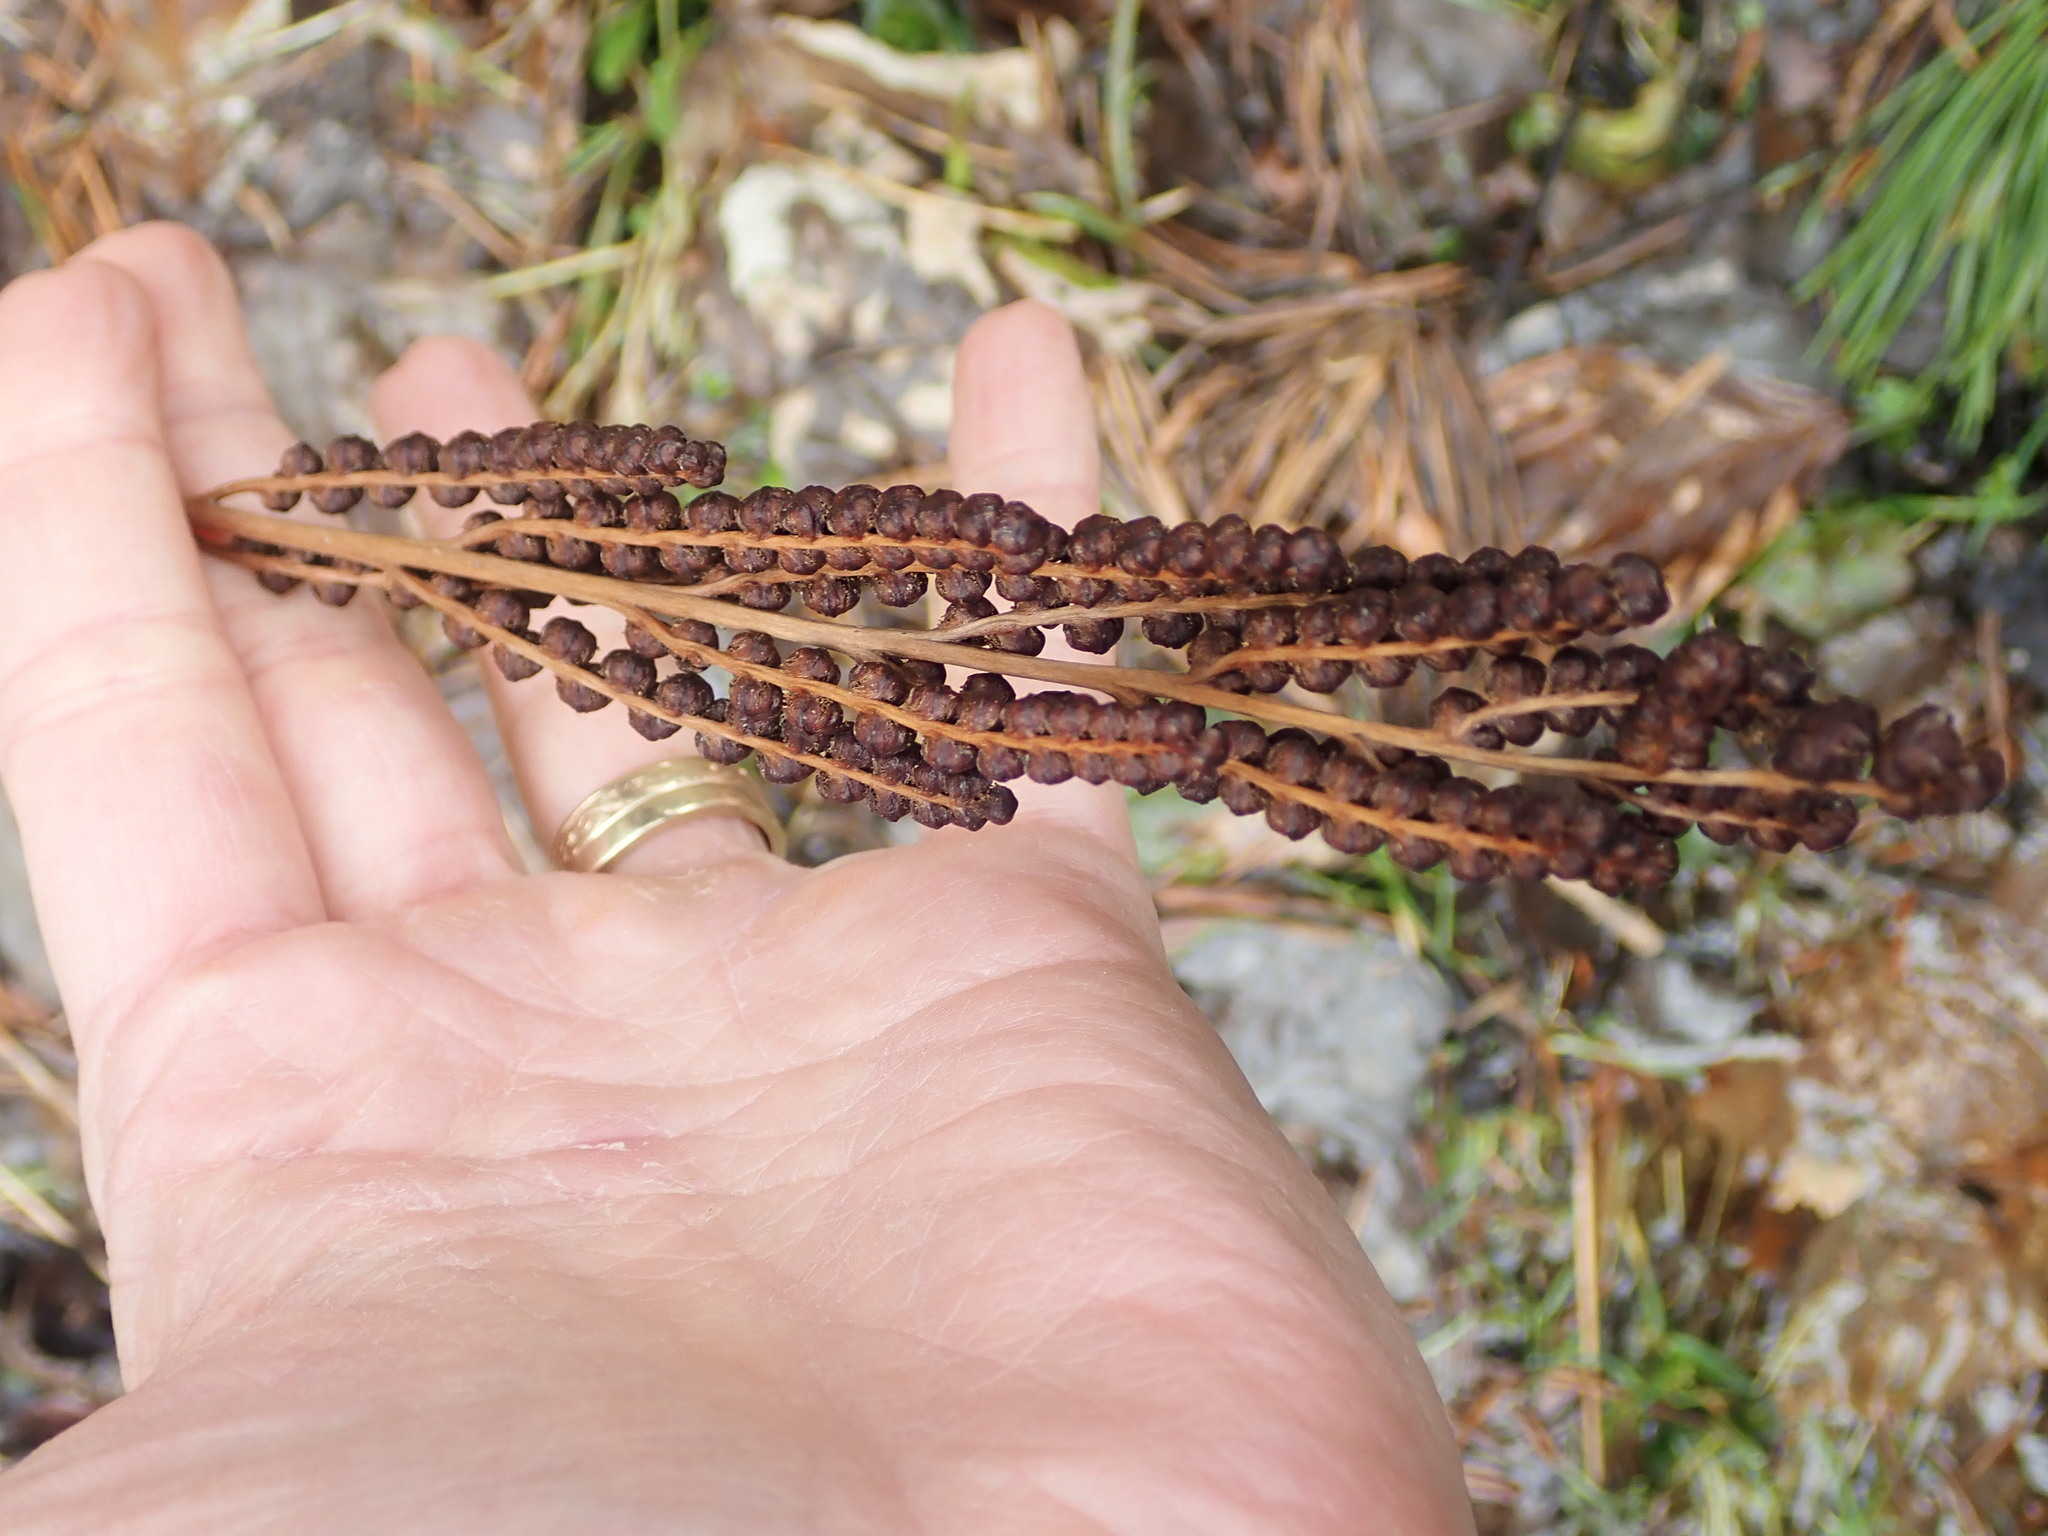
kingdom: Plantae
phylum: Tracheophyta
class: Polypodiopsida
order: Polypodiales
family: Onocleaceae
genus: Onoclea
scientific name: Onoclea sensibilis
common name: Sensitive fern
